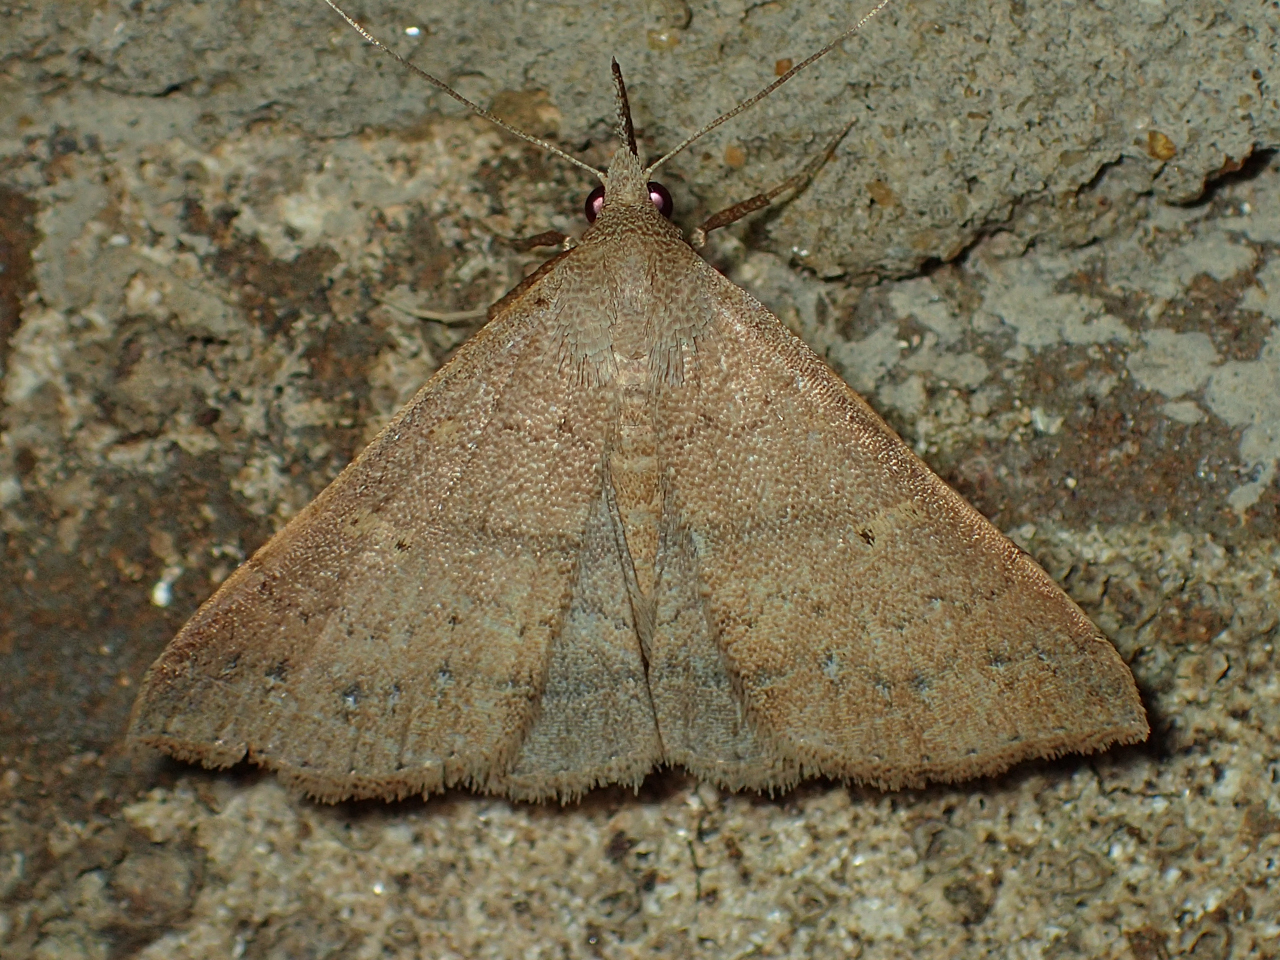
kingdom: Animalia
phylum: Arthropoda
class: Insecta
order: Lepidoptera
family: Erebidae
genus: Renia
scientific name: Renia fraternalis
